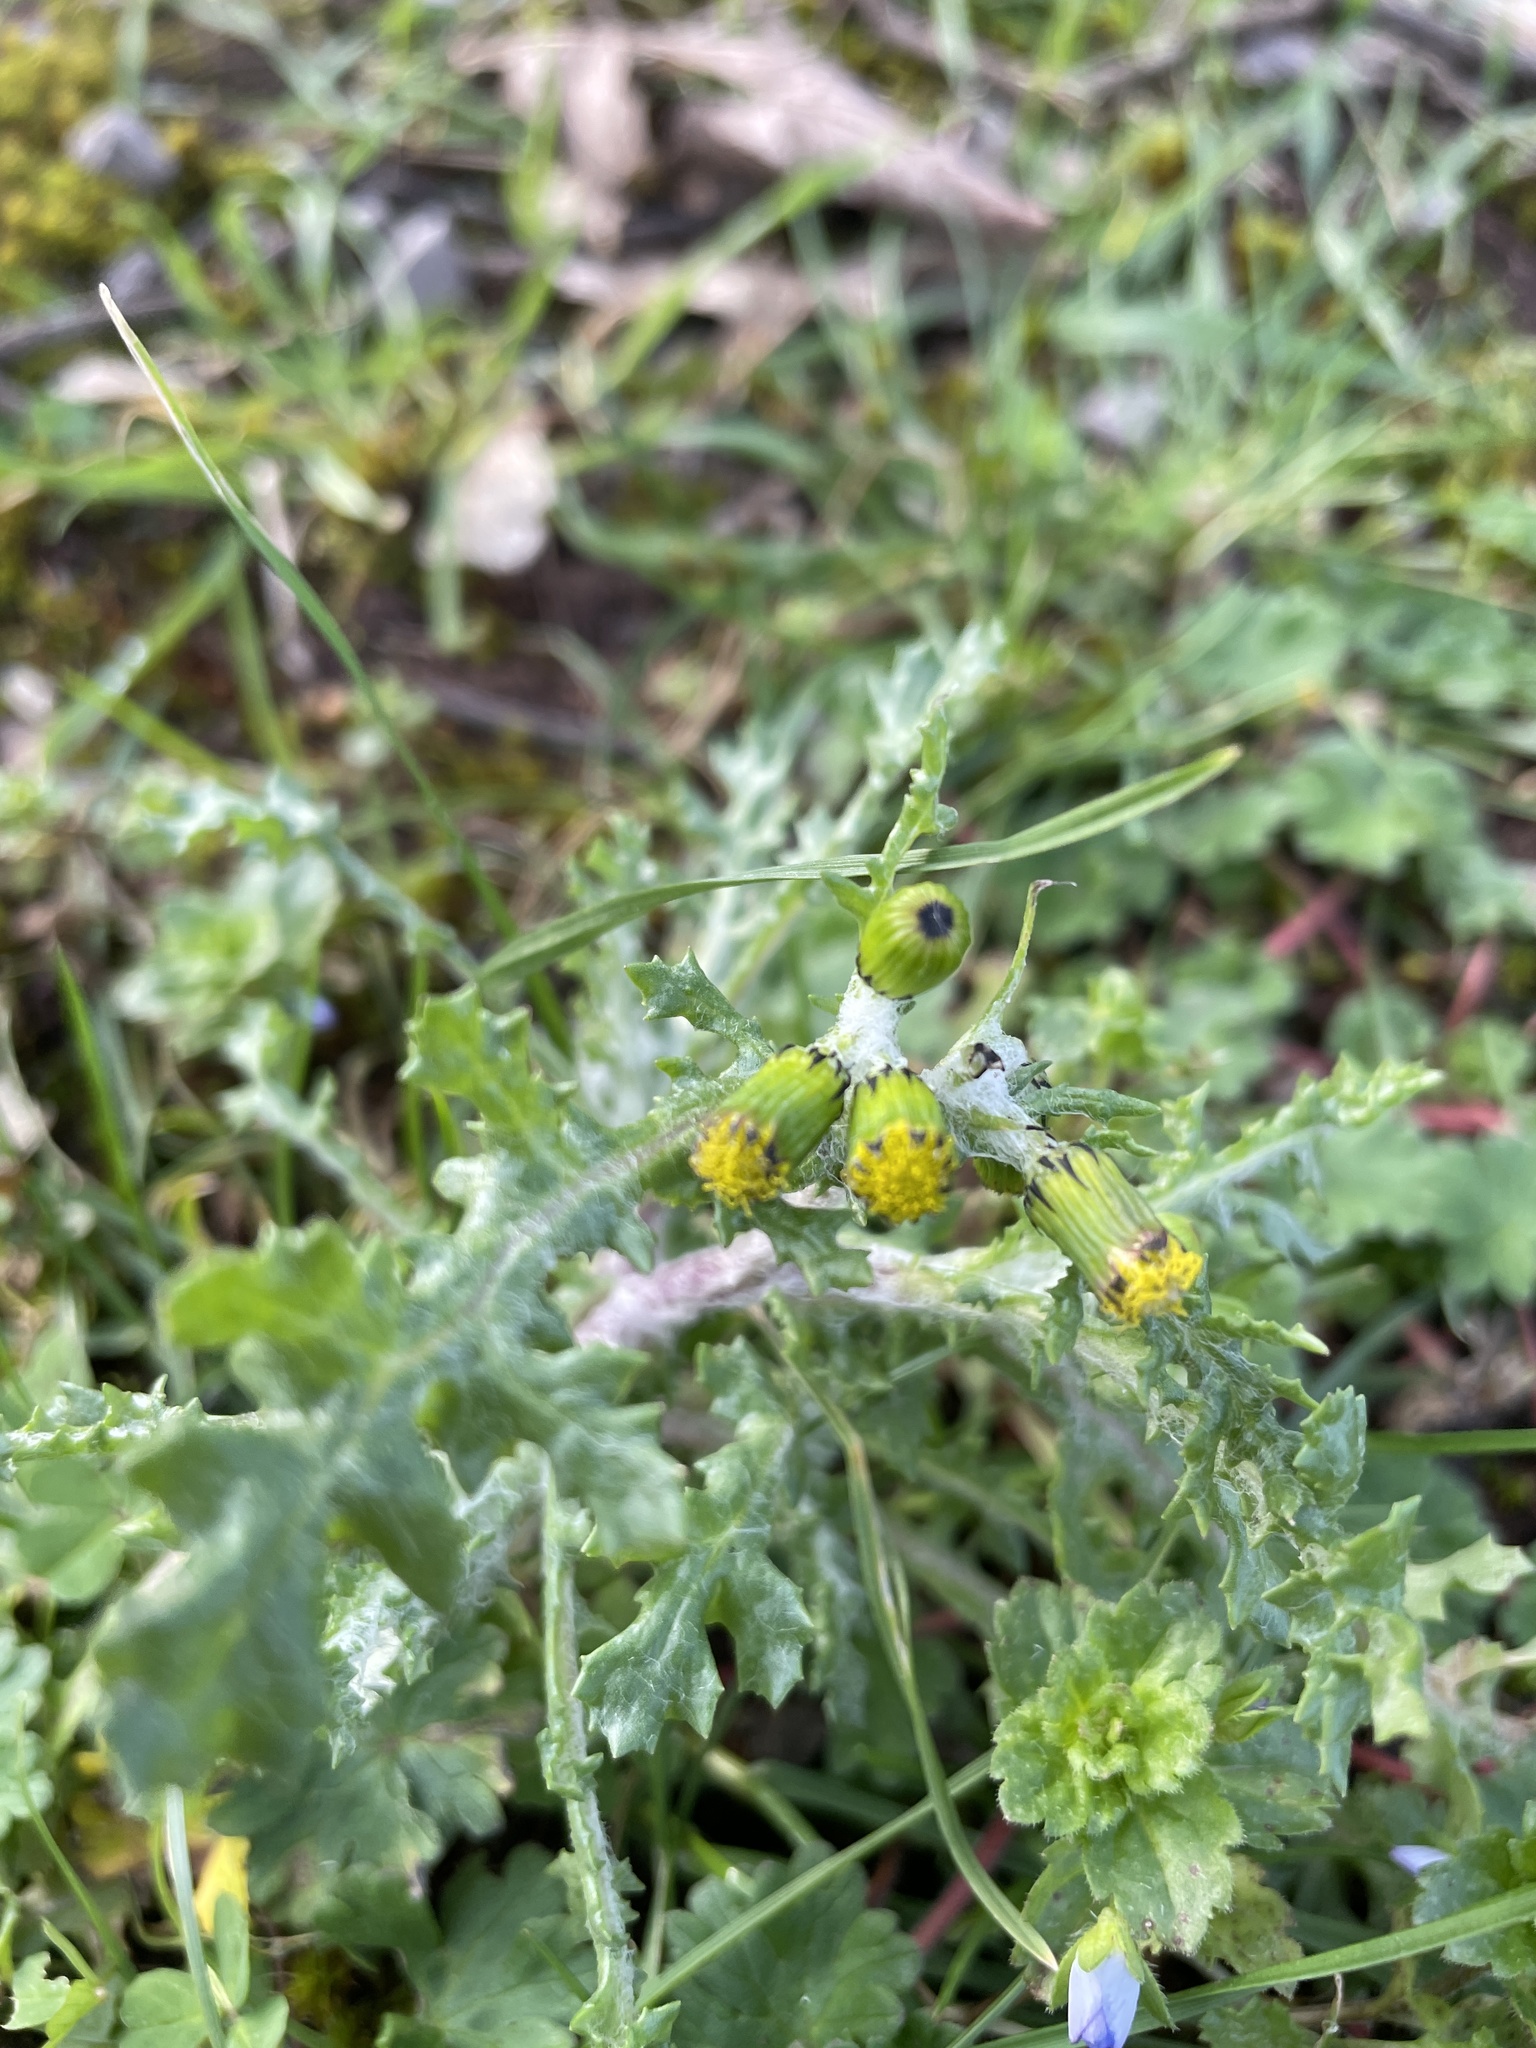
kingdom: Plantae
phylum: Tracheophyta
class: Magnoliopsida
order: Asterales
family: Asteraceae
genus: Senecio
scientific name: Senecio vulgaris
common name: Old-man-in-the-spring
